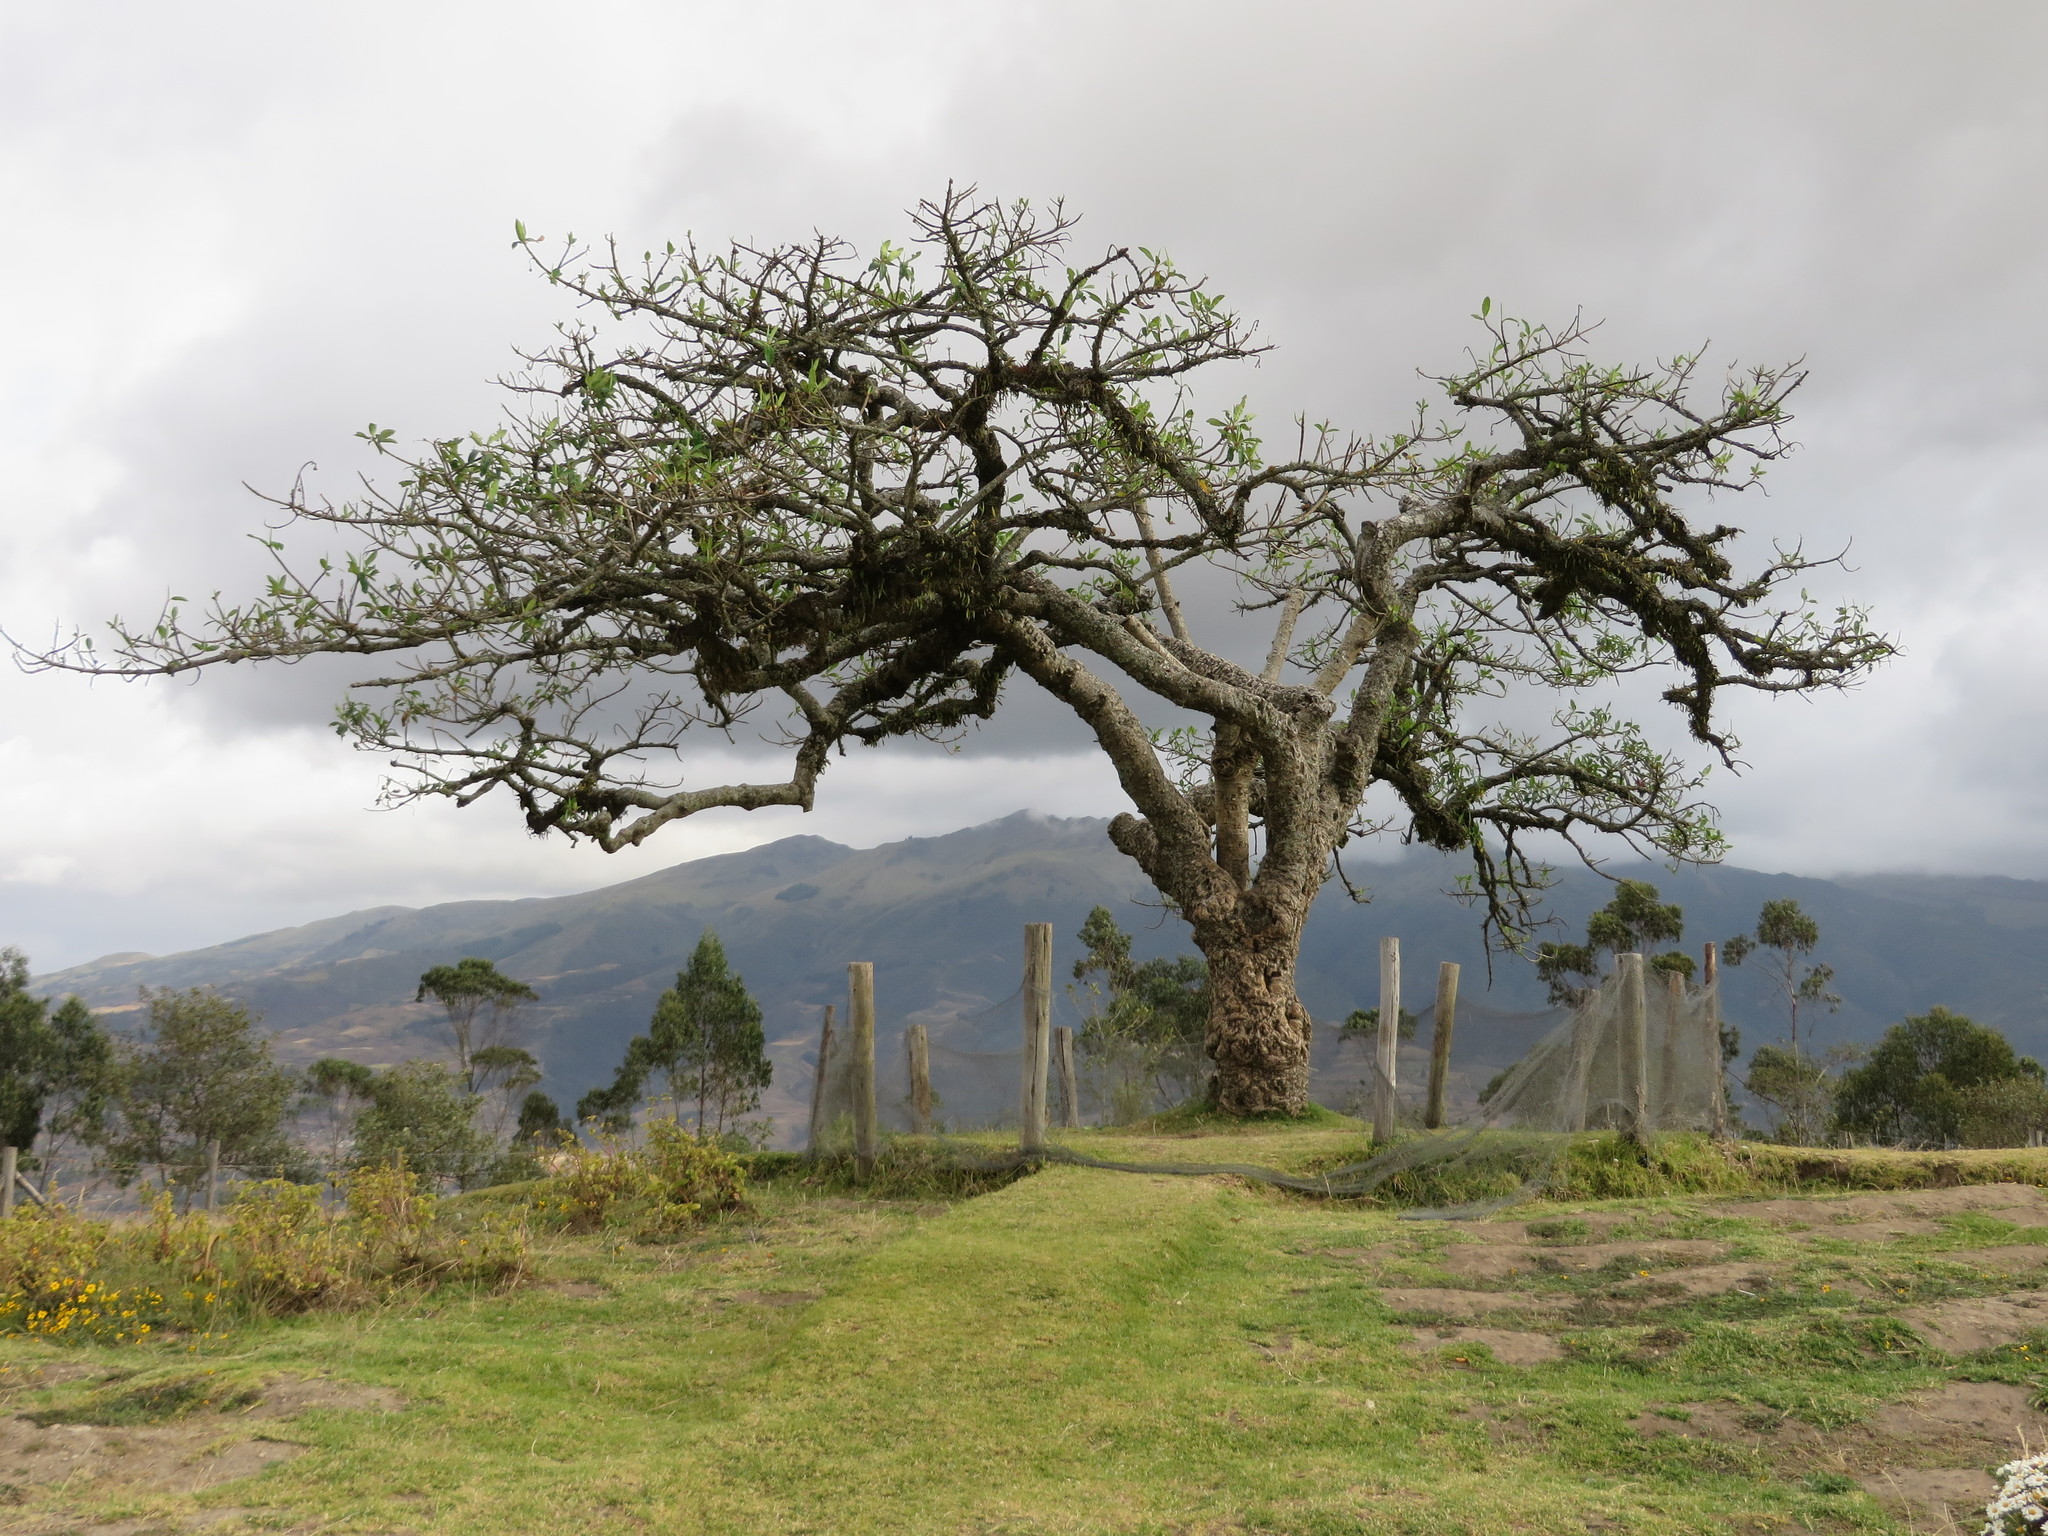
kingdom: Plantae
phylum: Tracheophyta
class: Magnoliopsida
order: Malpighiales
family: Euphorbiaceae
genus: Euphorbia
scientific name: Euphorbia laurifolia
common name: Lechero
